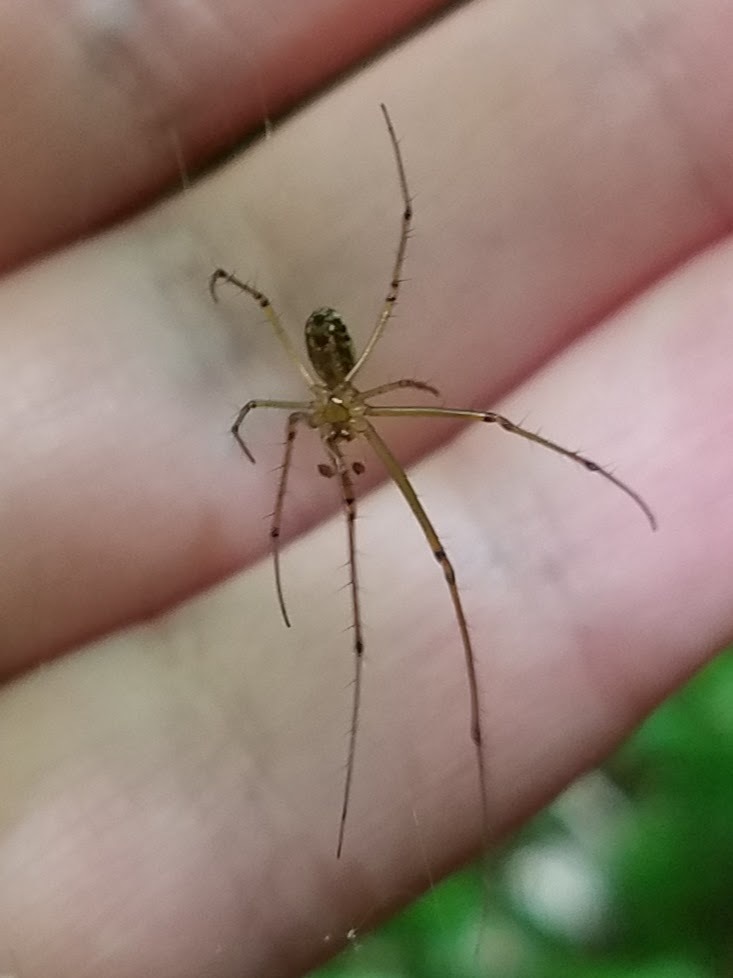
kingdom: Animalia
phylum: Arthropoda
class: Arachnida
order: Araneae
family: Tetragnathidae
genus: Leucauge
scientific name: Leucauge venusta
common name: Longjawed orb weavers
